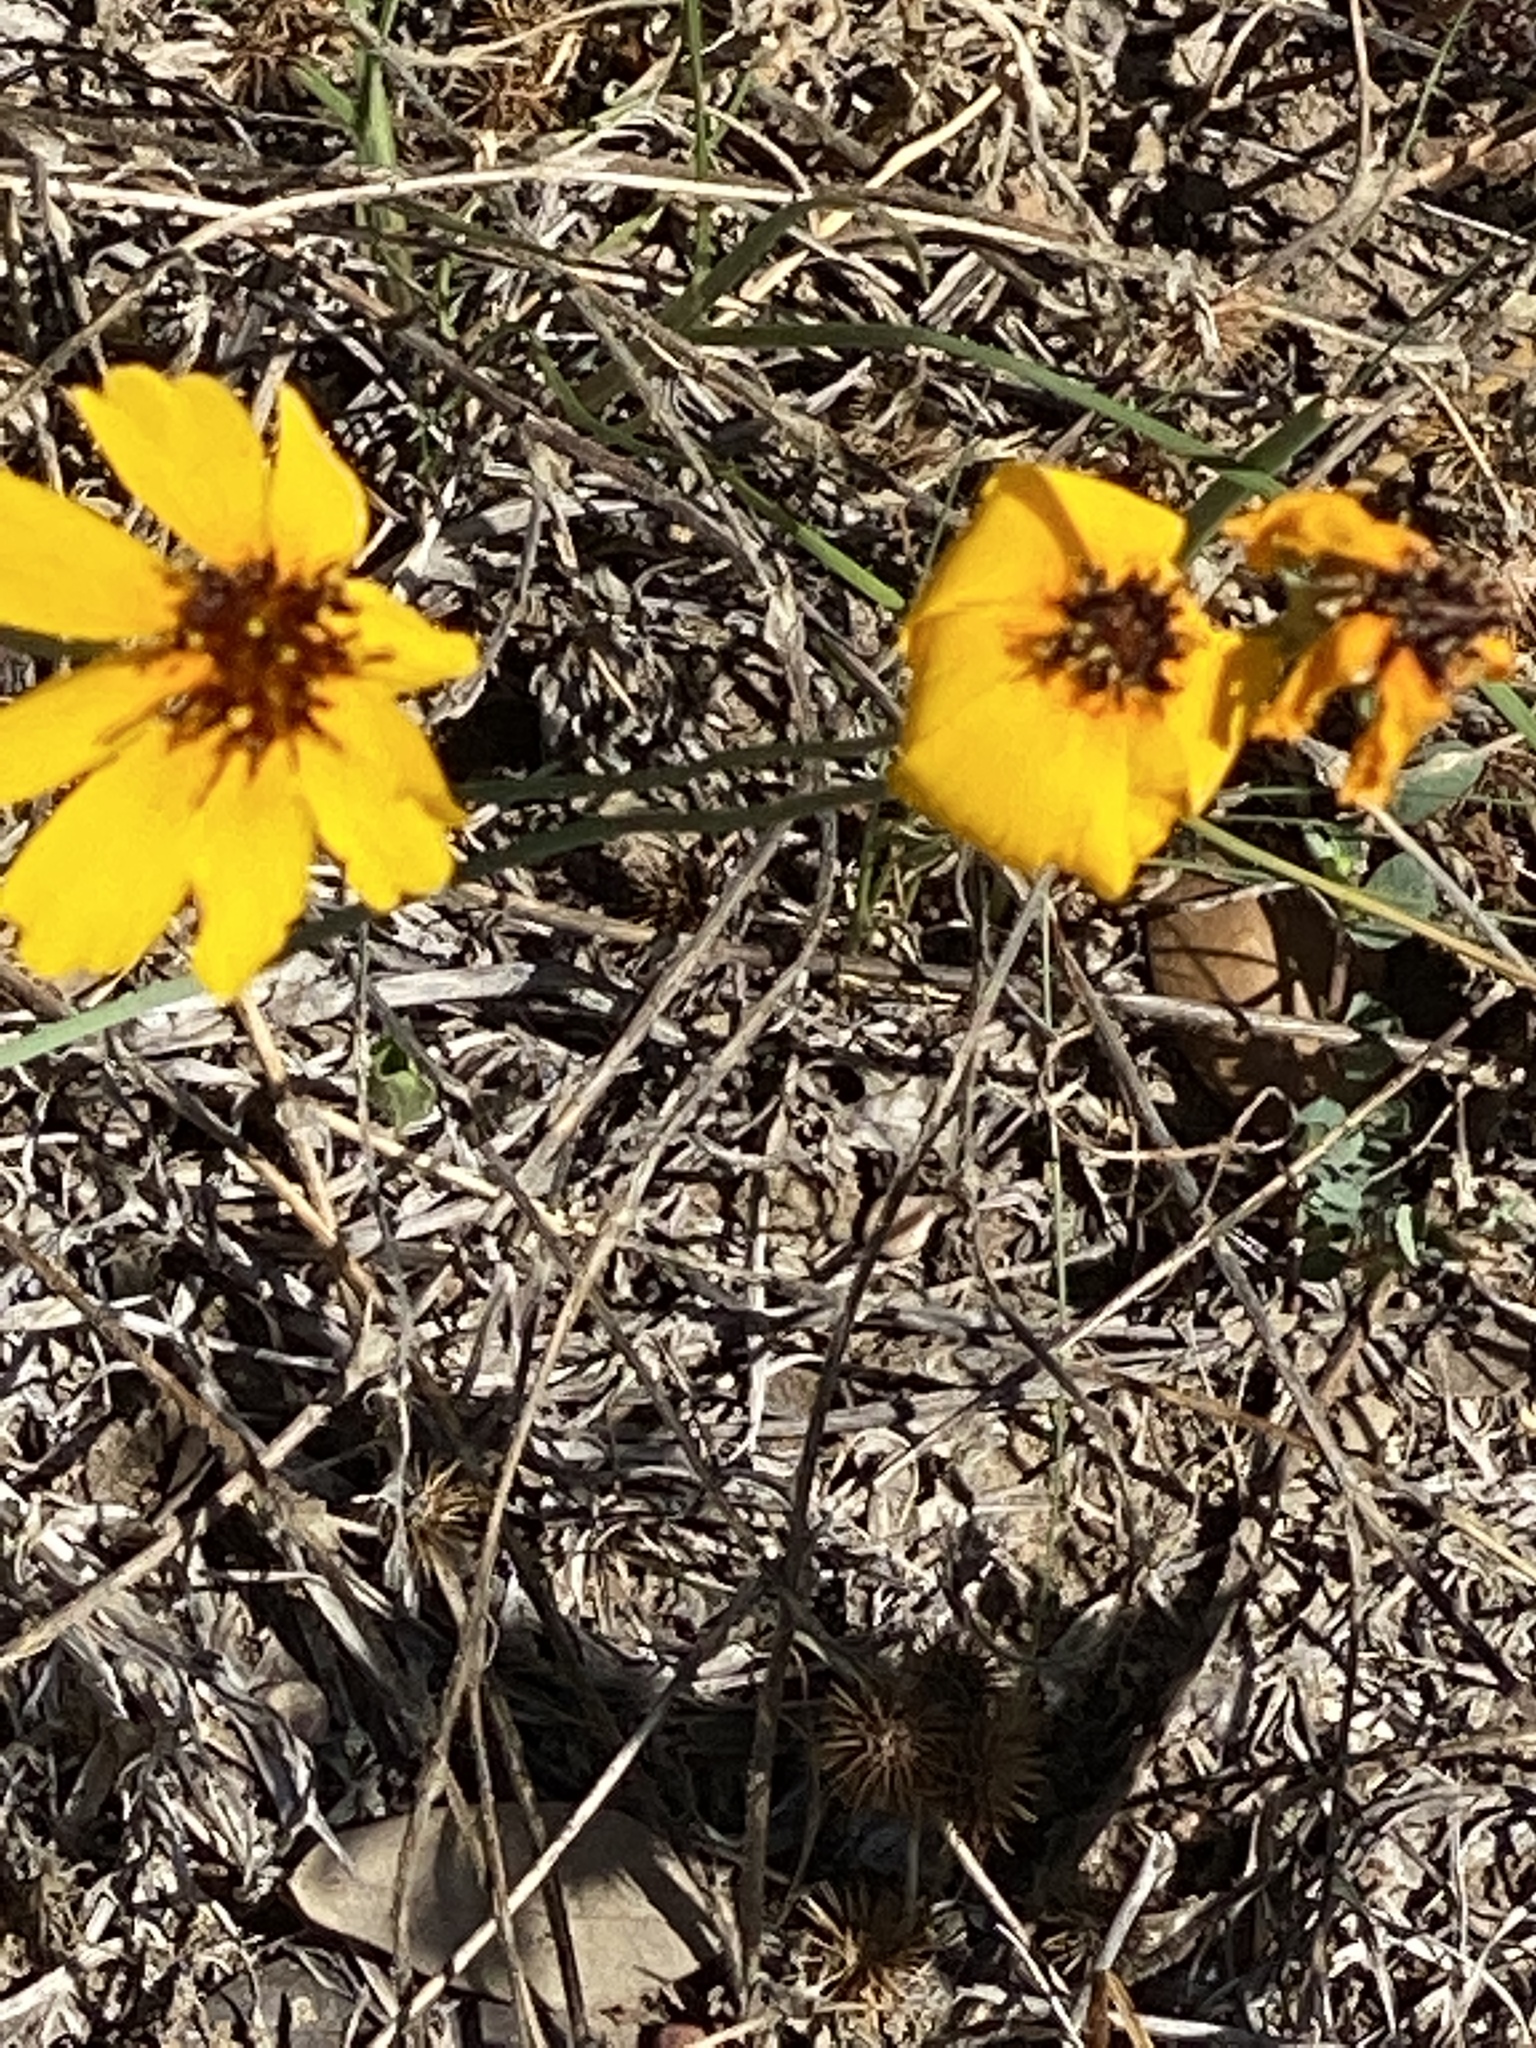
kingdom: Plantae
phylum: Tracheophyta
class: Magnoliopsida
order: Asterales
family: Asteraceae
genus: Thelesperma
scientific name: Thelesperma filifolium
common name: Stiff greenthread
